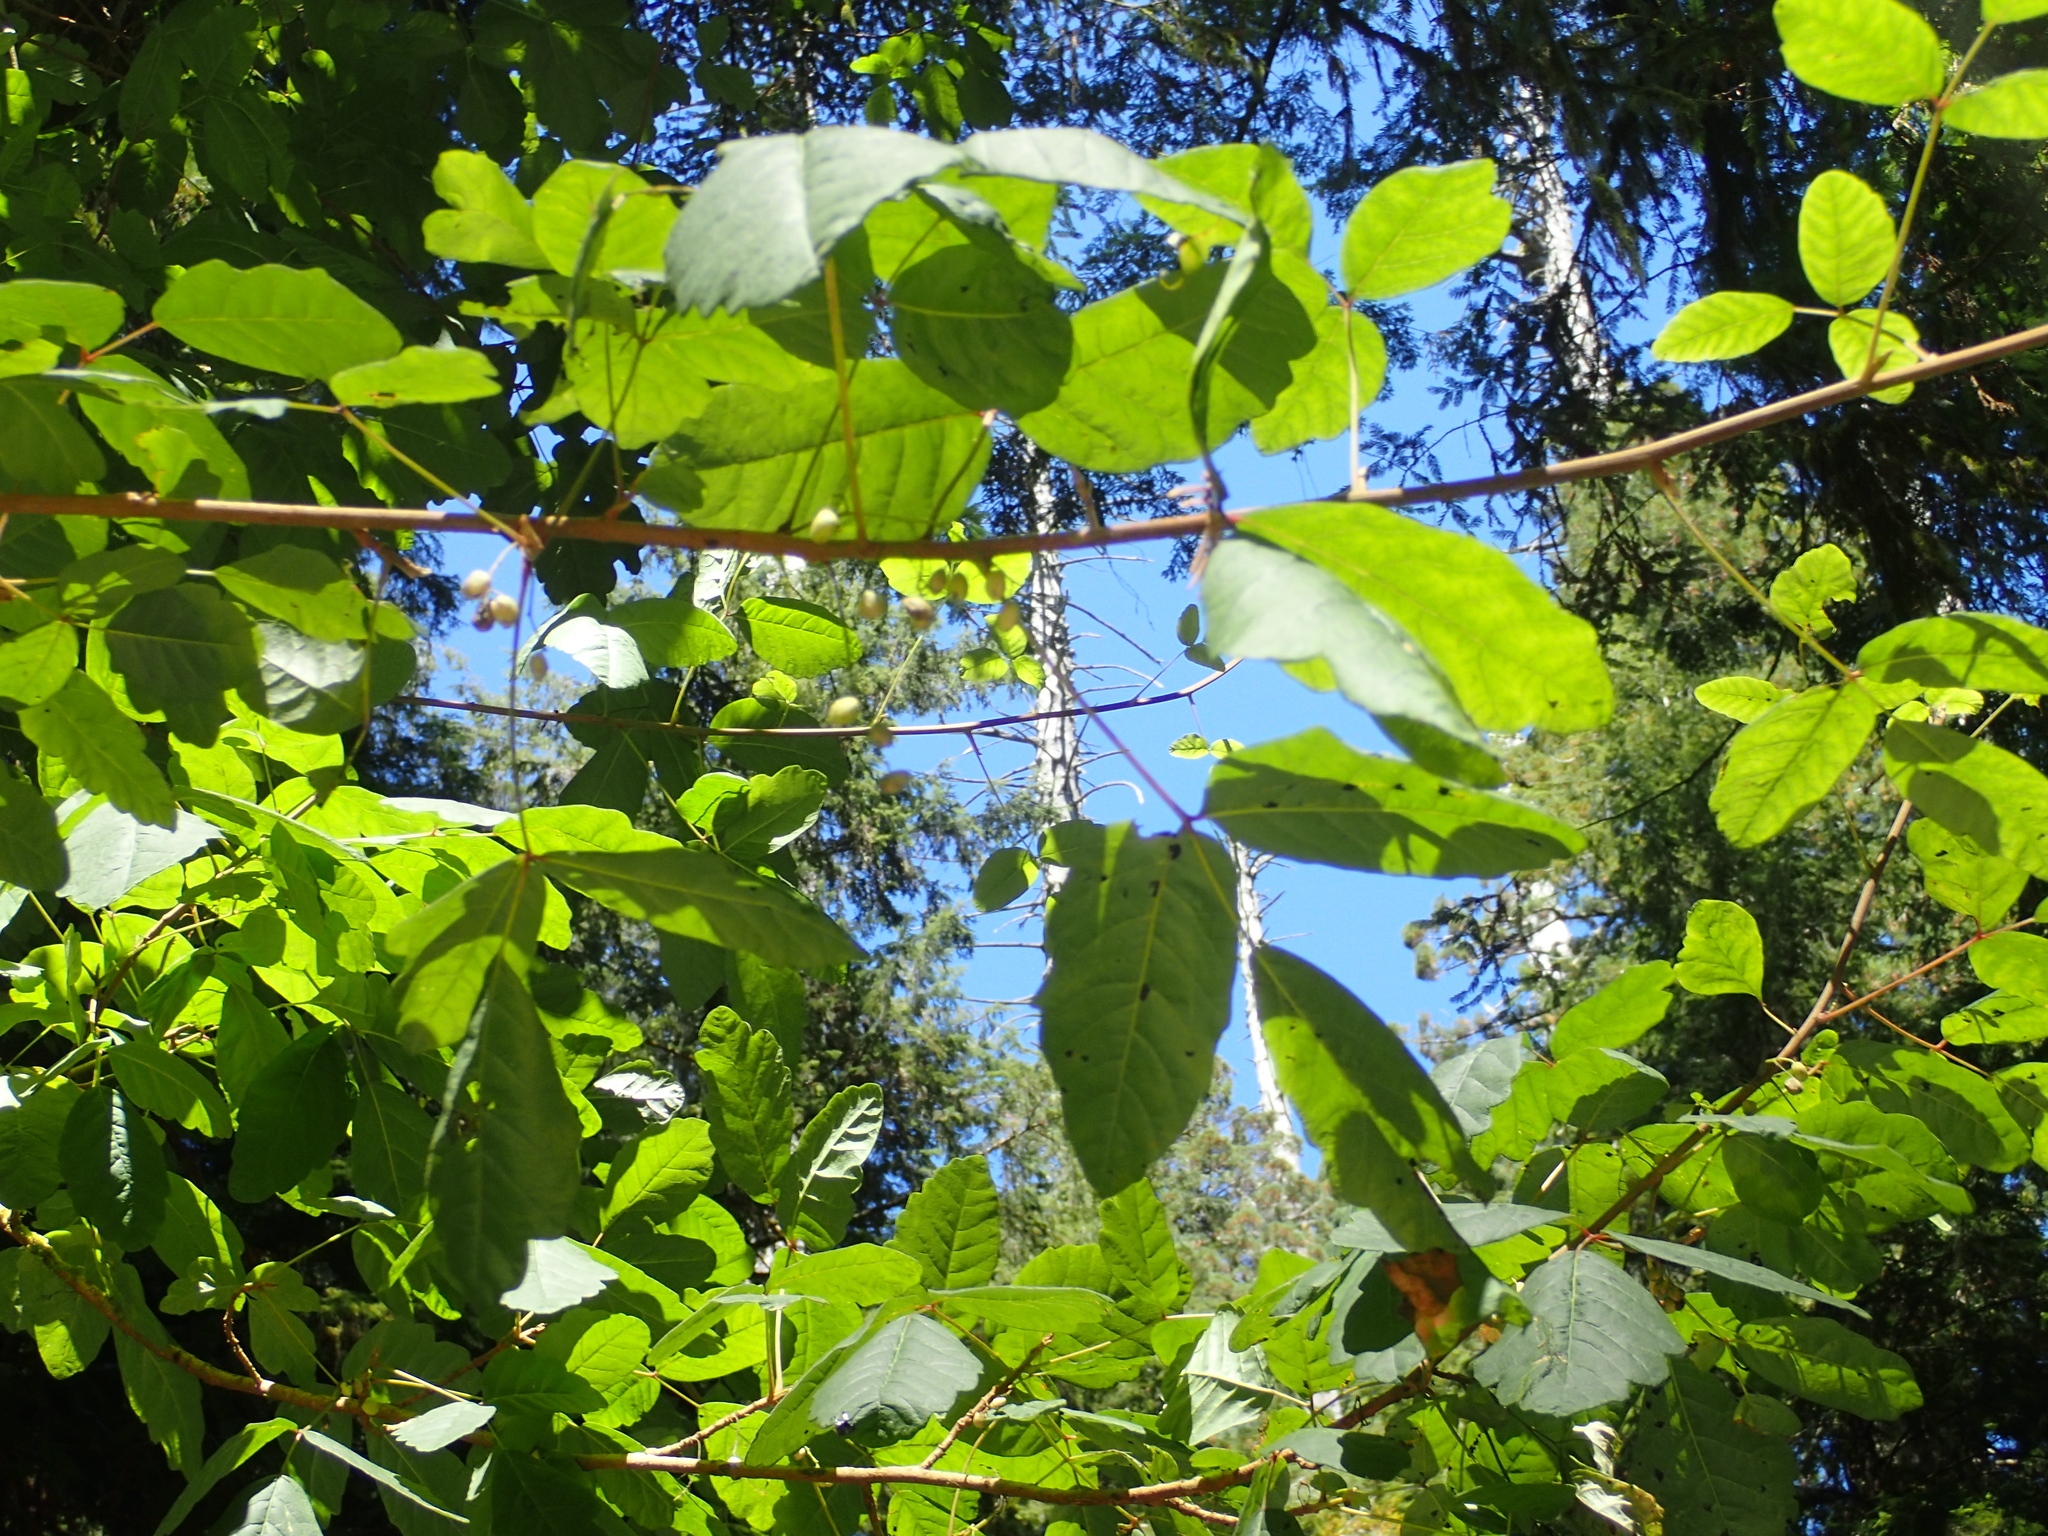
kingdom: Plantae
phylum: Tracheophyta
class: Magnoliopsida
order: Sapindales
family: Anacardiaceae
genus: Toxicodendron
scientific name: Toxicodendron diversilobum
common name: Pacific poison-oak
